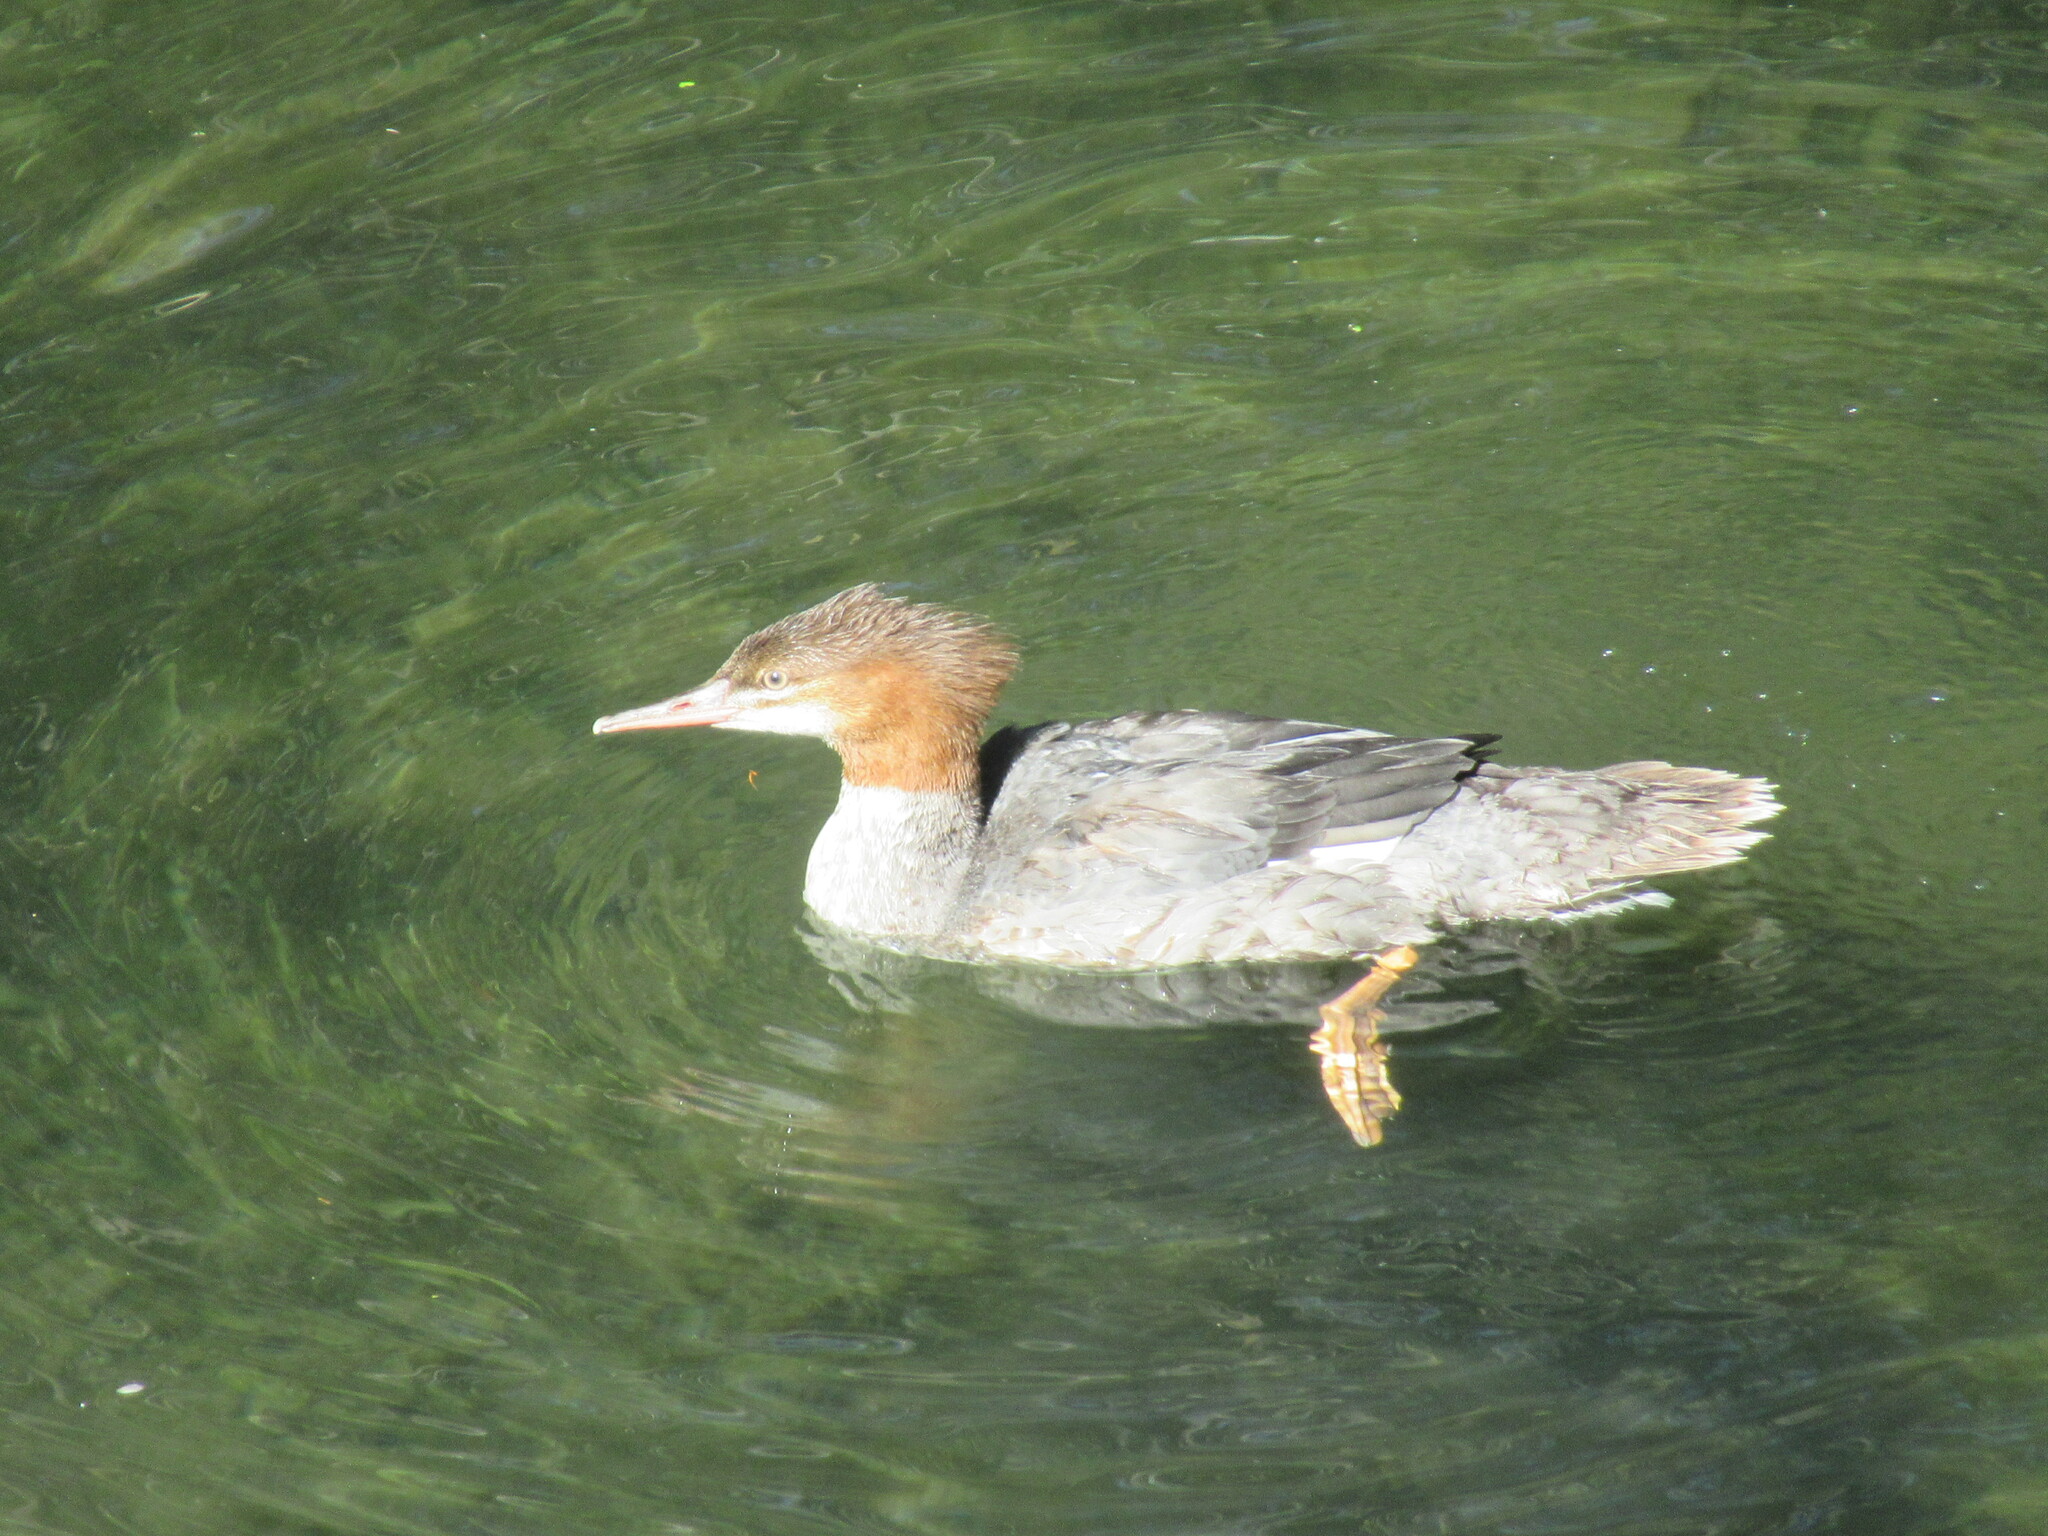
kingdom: Animalia
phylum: Chordata
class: Aves
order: Anseriformes
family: Anatidae
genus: Mergus
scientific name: Mergus merganser
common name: Common merganser
